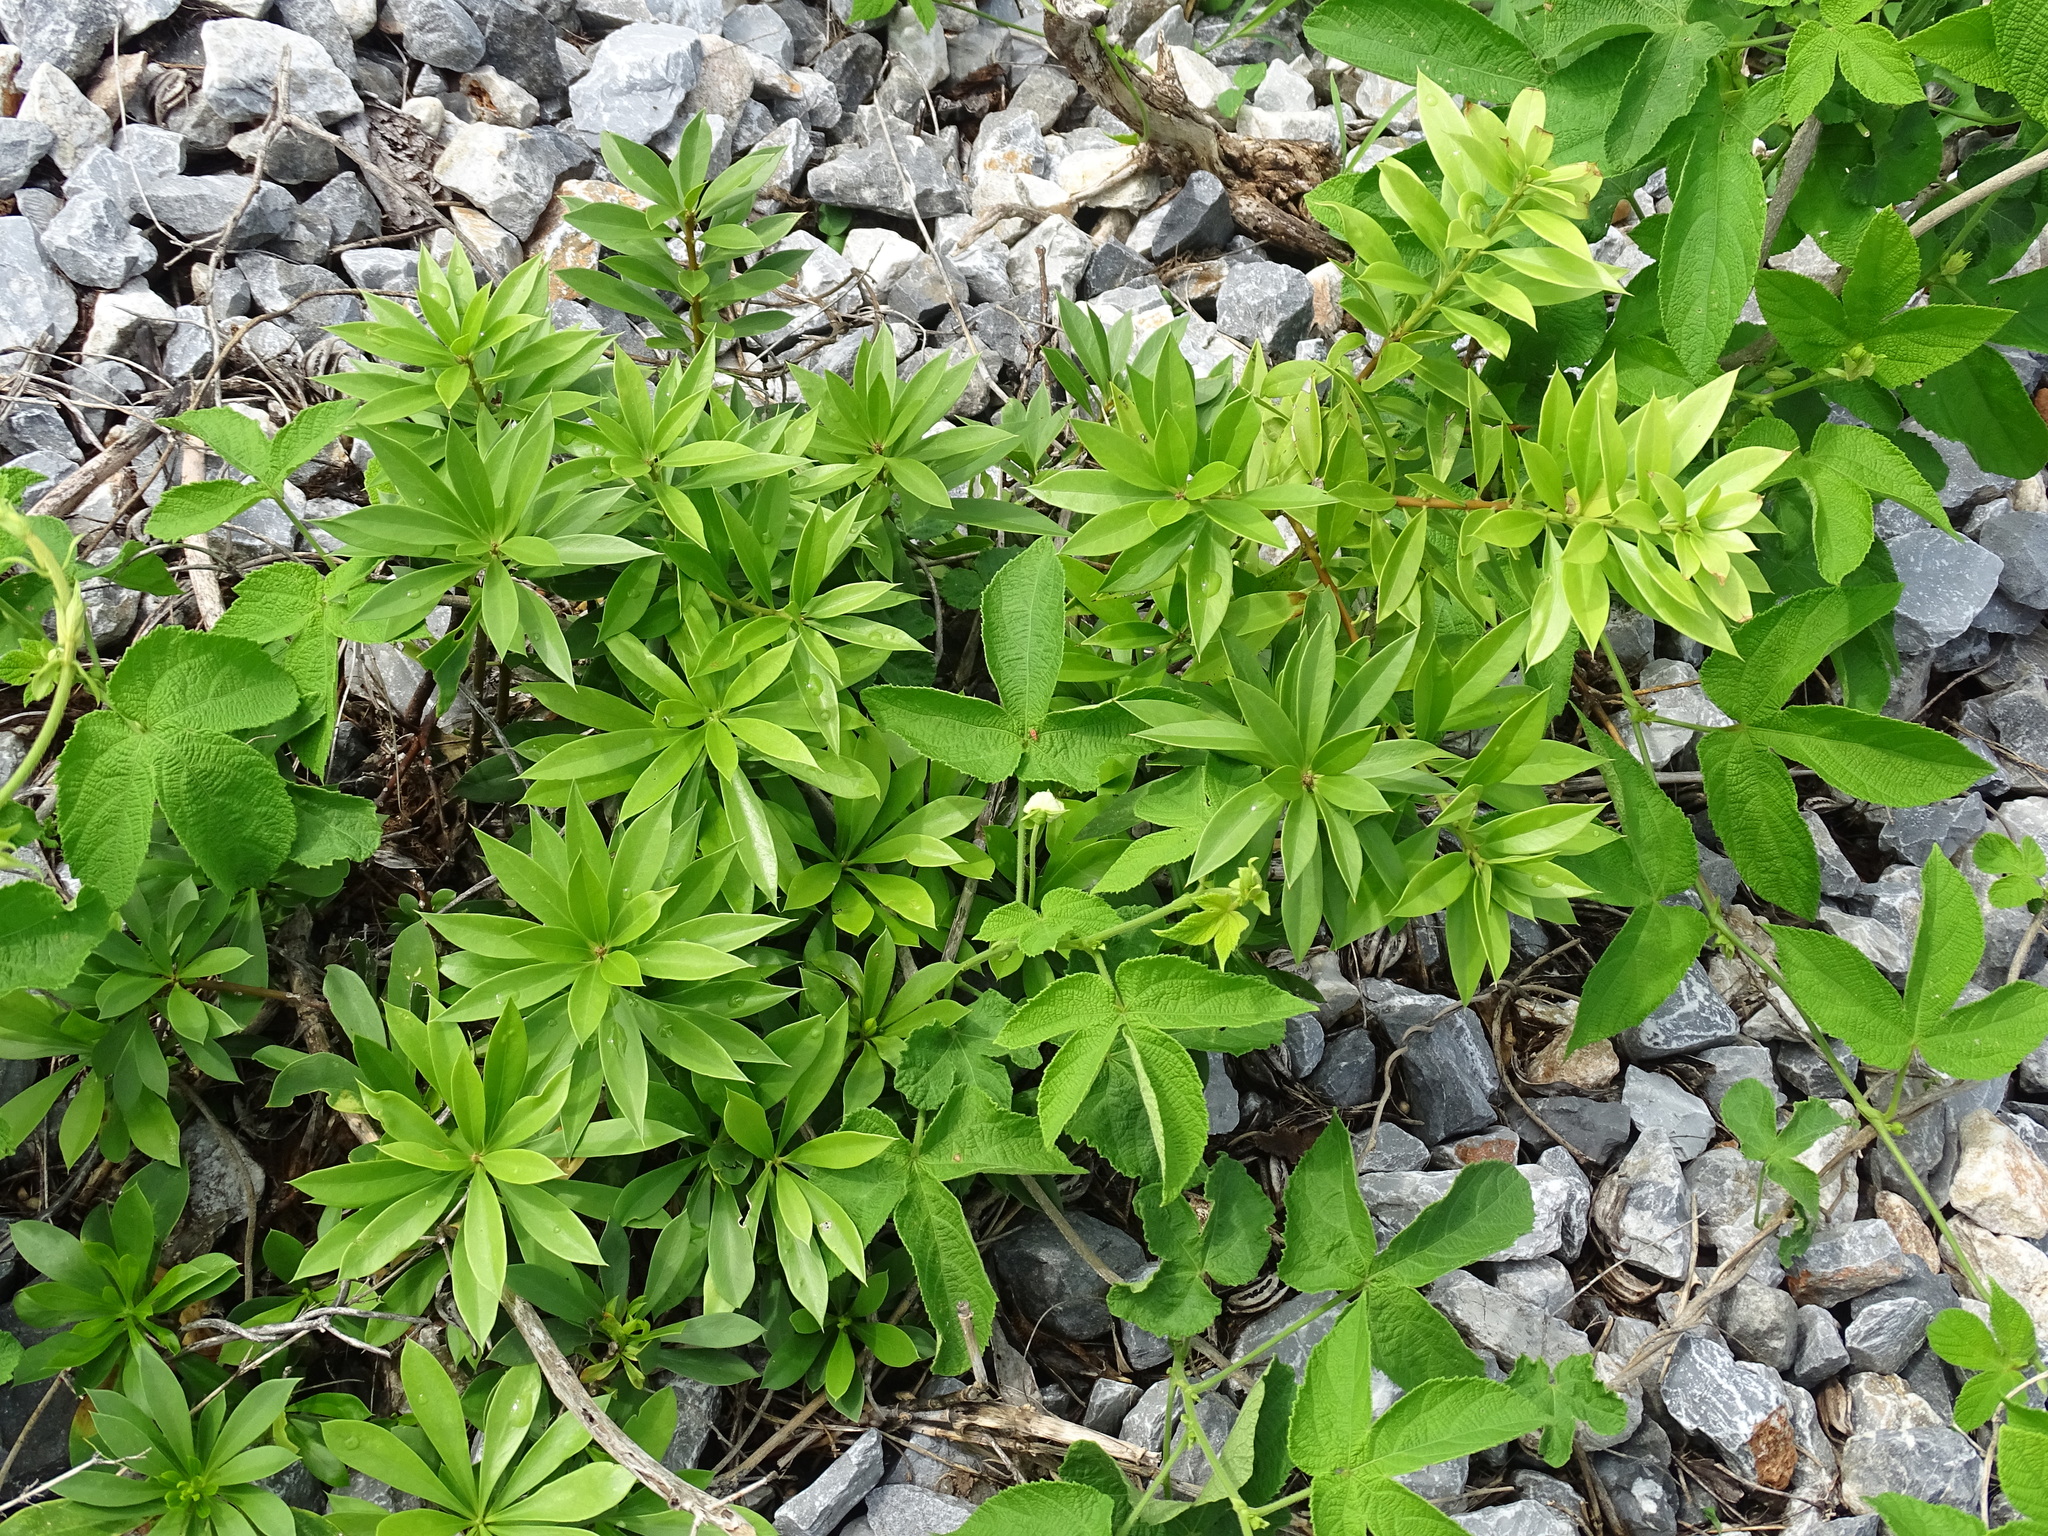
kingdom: Plantae
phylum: Tracheophyta
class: Magnoliopsida
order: Ericales
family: Primulaceae
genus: Bonellia
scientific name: Bonellia macrocarpa
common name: Primrose
